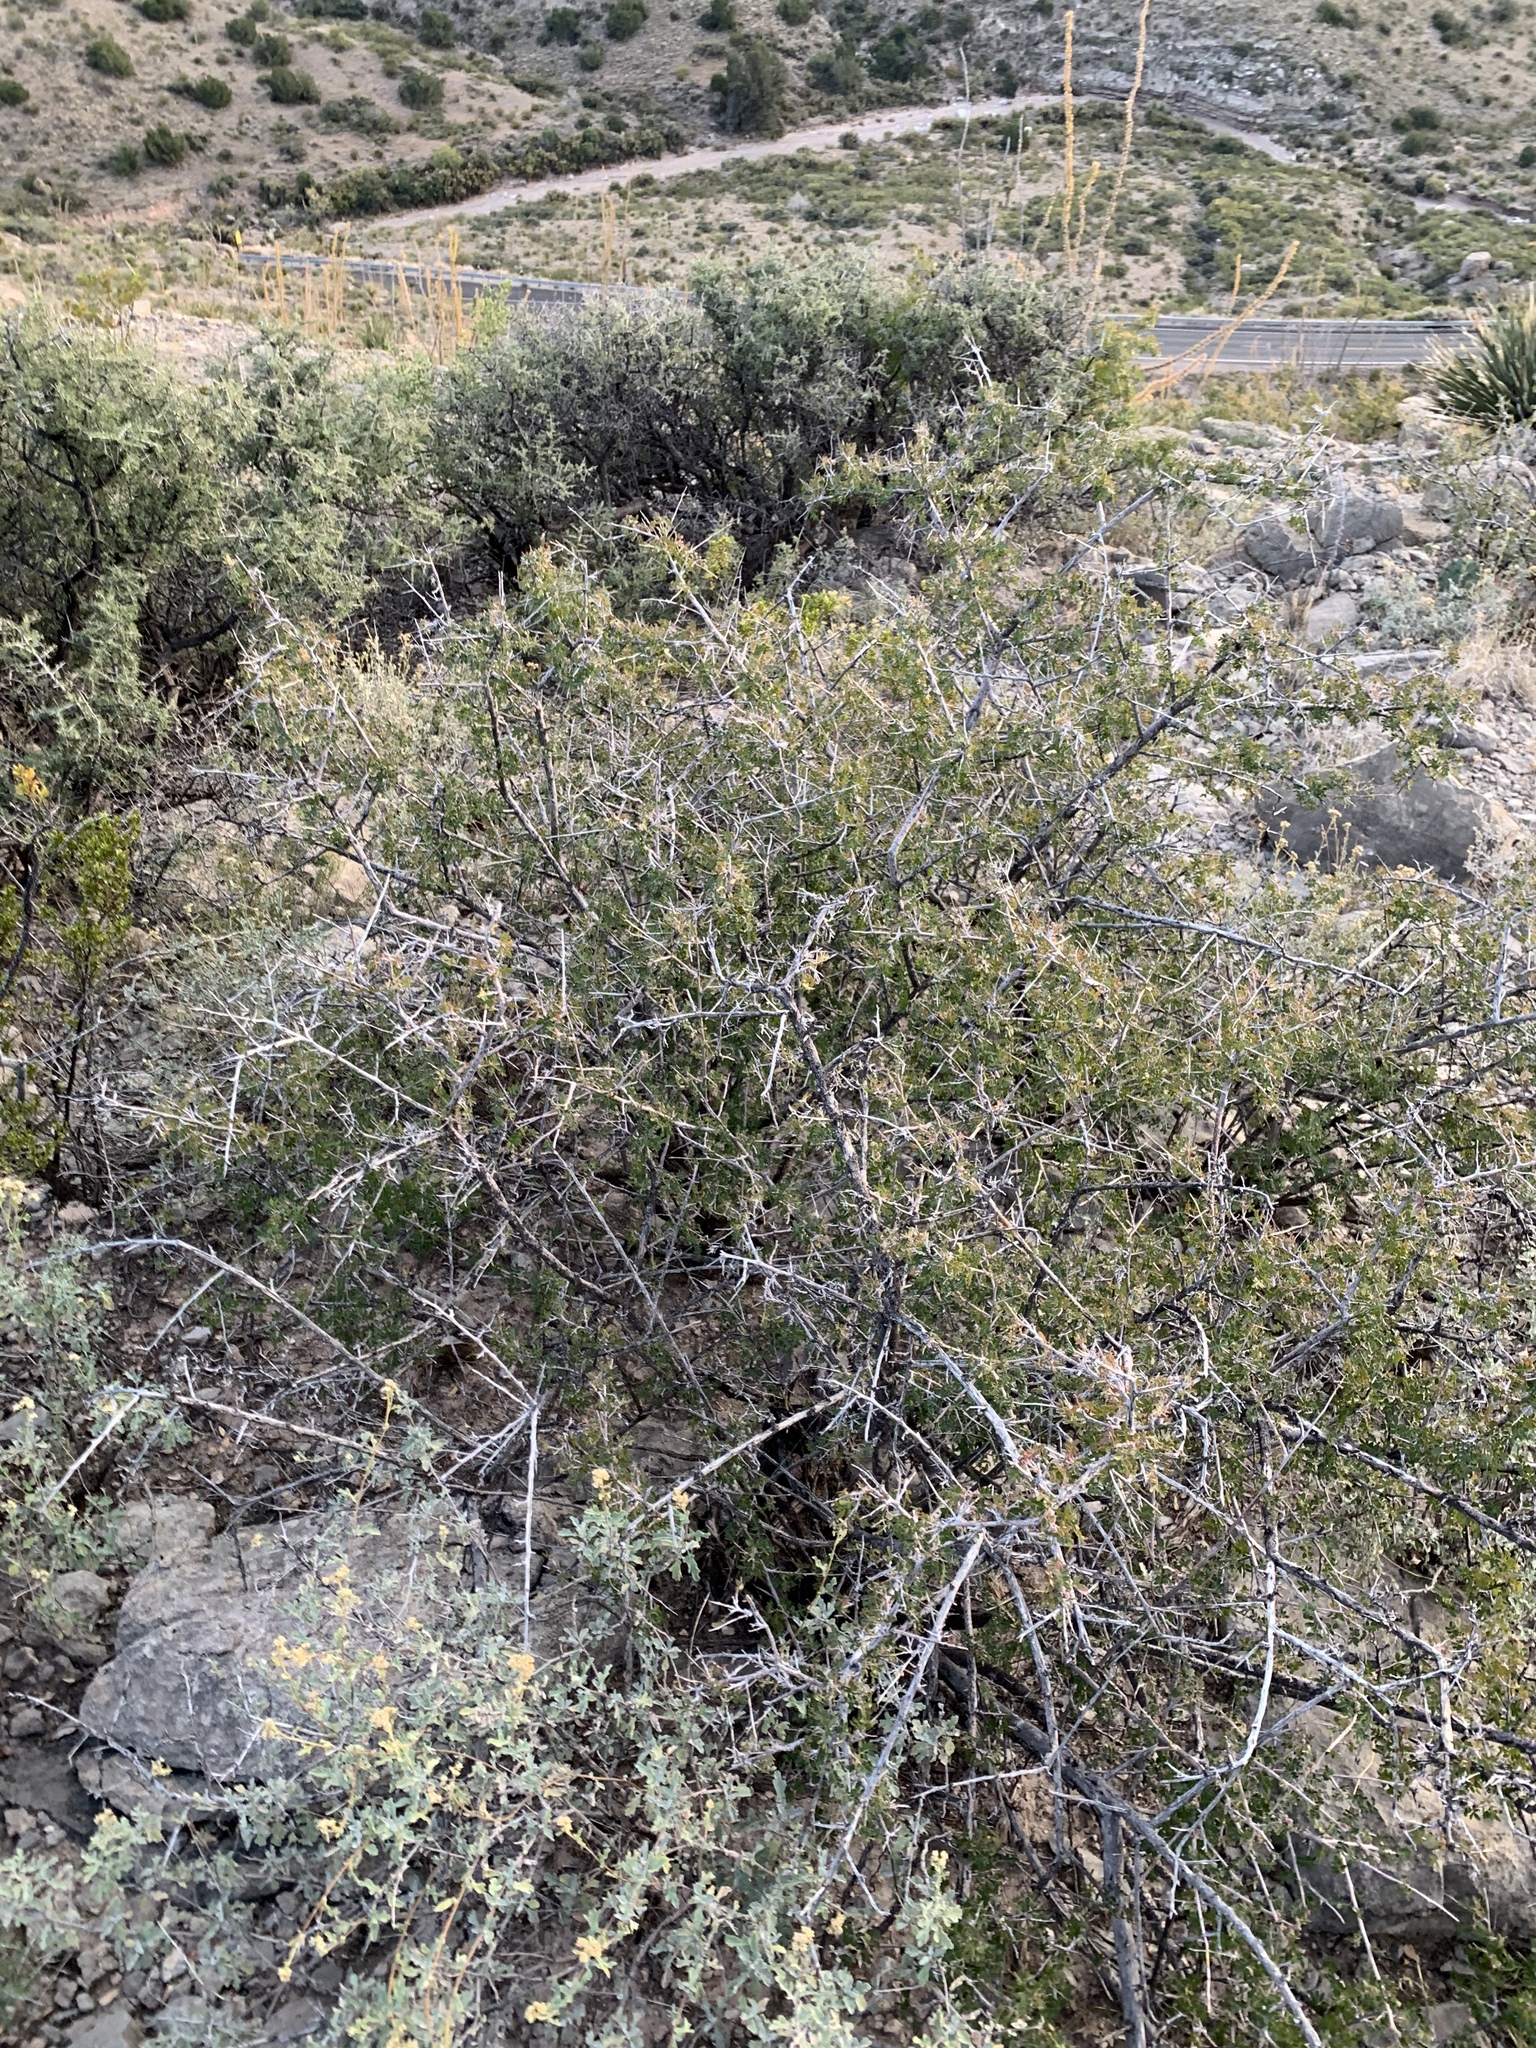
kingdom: Plantae
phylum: Tracheophyta
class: Magnoliopsida
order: Sapindales
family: Anacardiaceae
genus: Rhus
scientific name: Rhus microphylla
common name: Desert sumac
